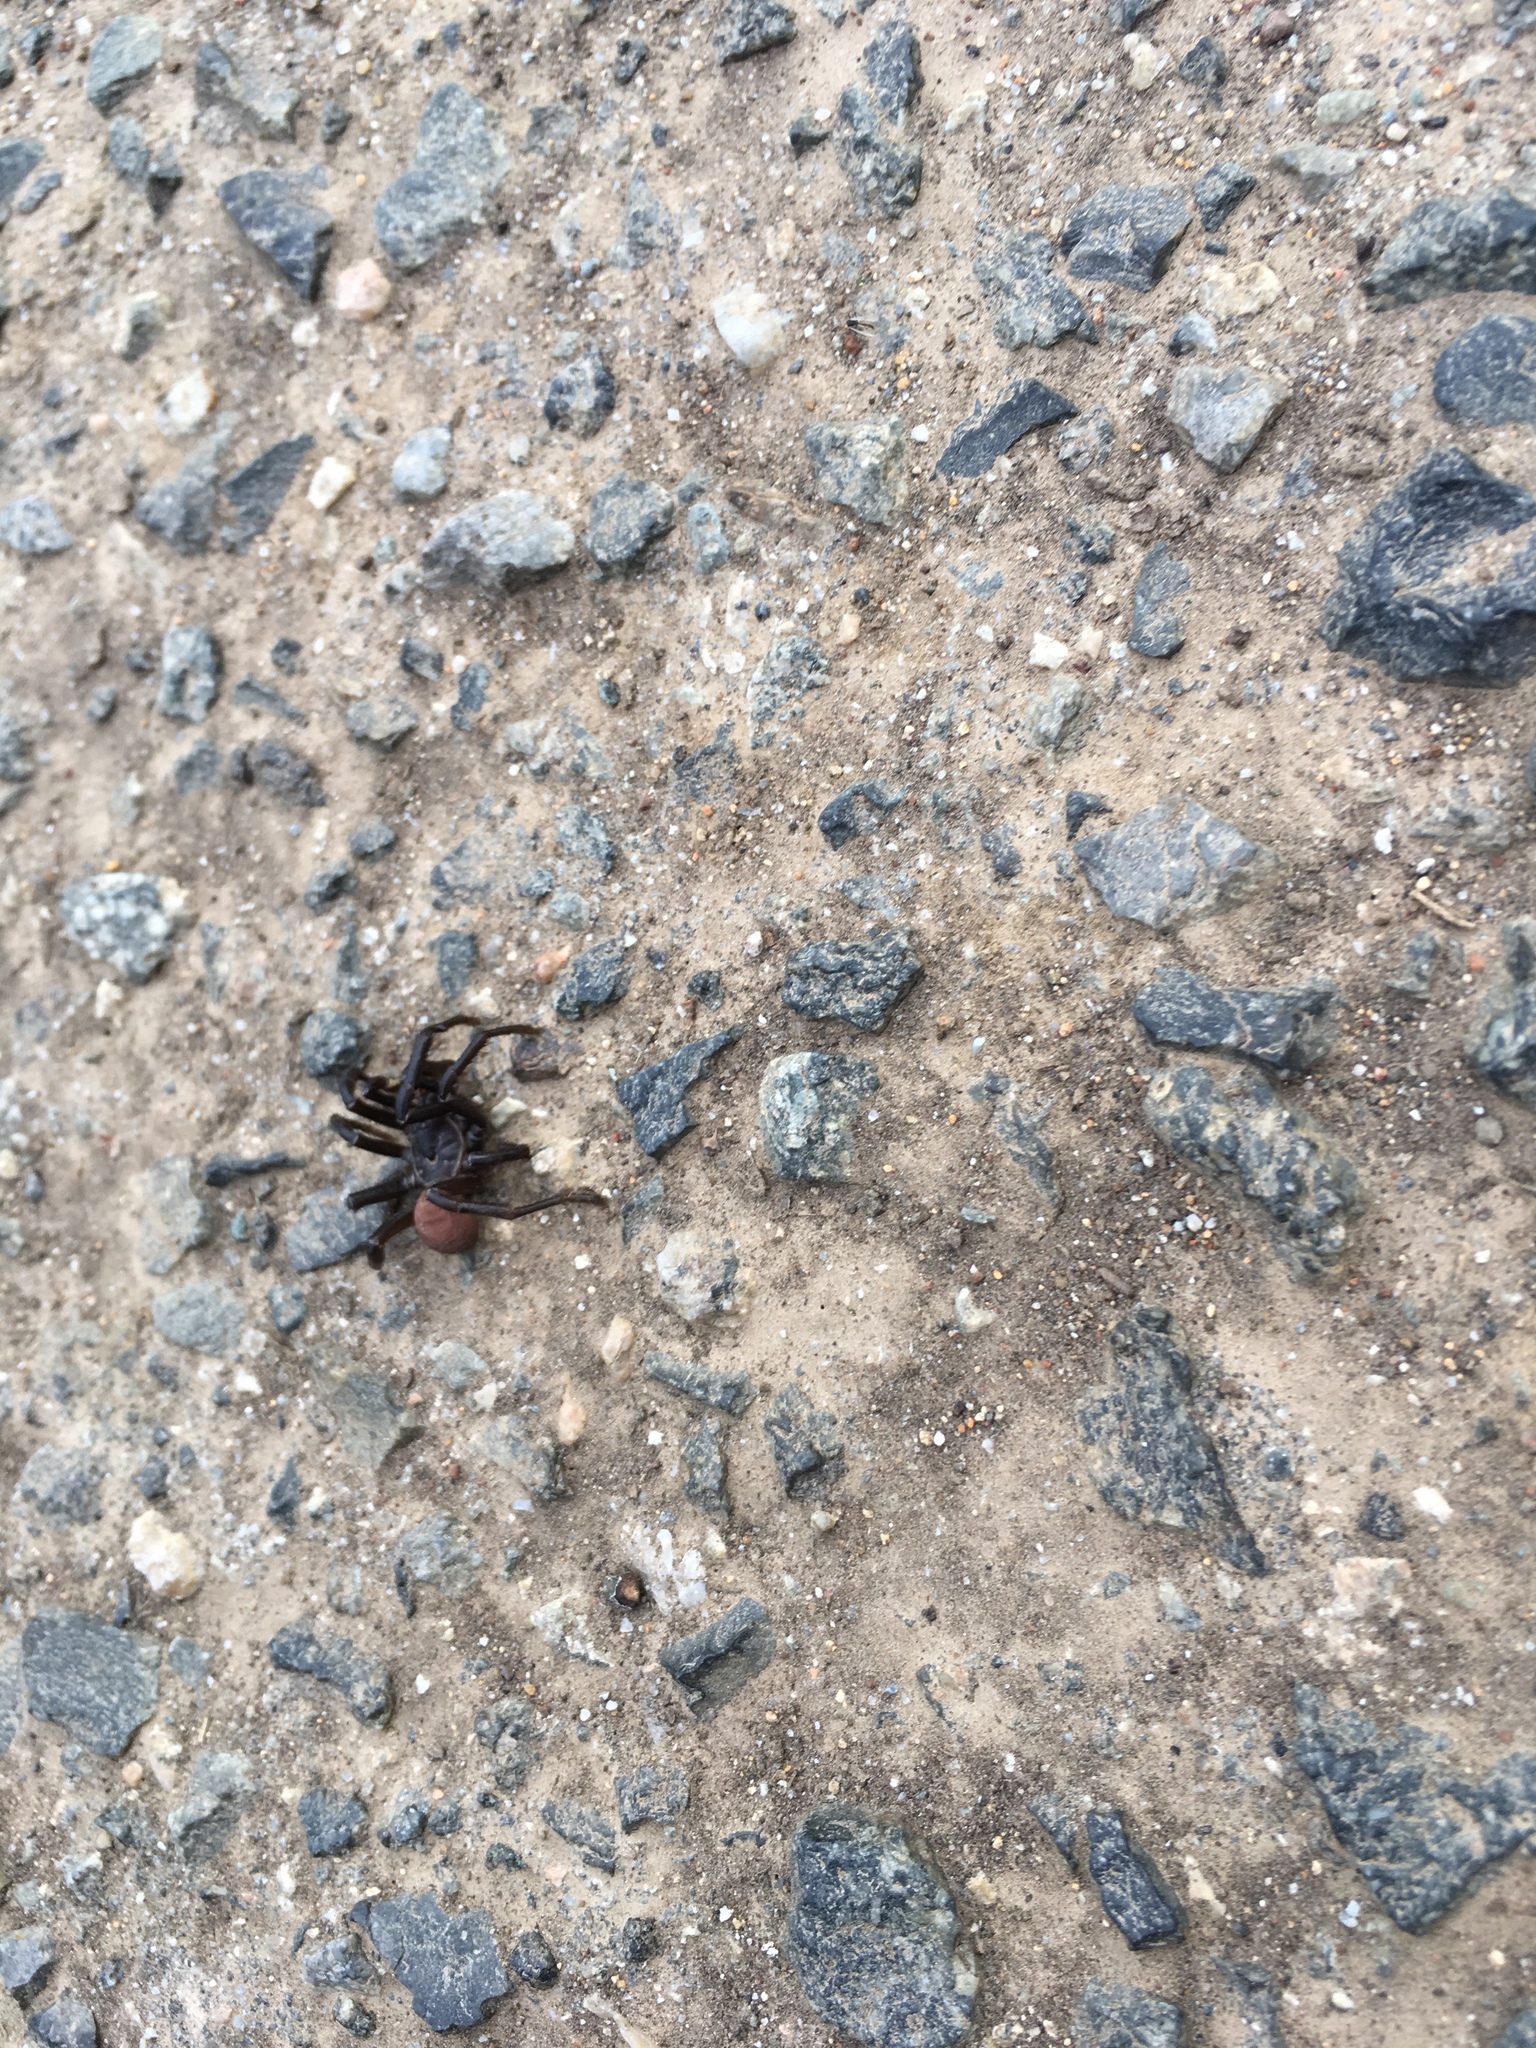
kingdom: Animalia
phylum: Arthropoda
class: Arachnida
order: Araneae
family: Halonoproctidae
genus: Bothriocyrtum
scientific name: Bothriocyrtum californicum
